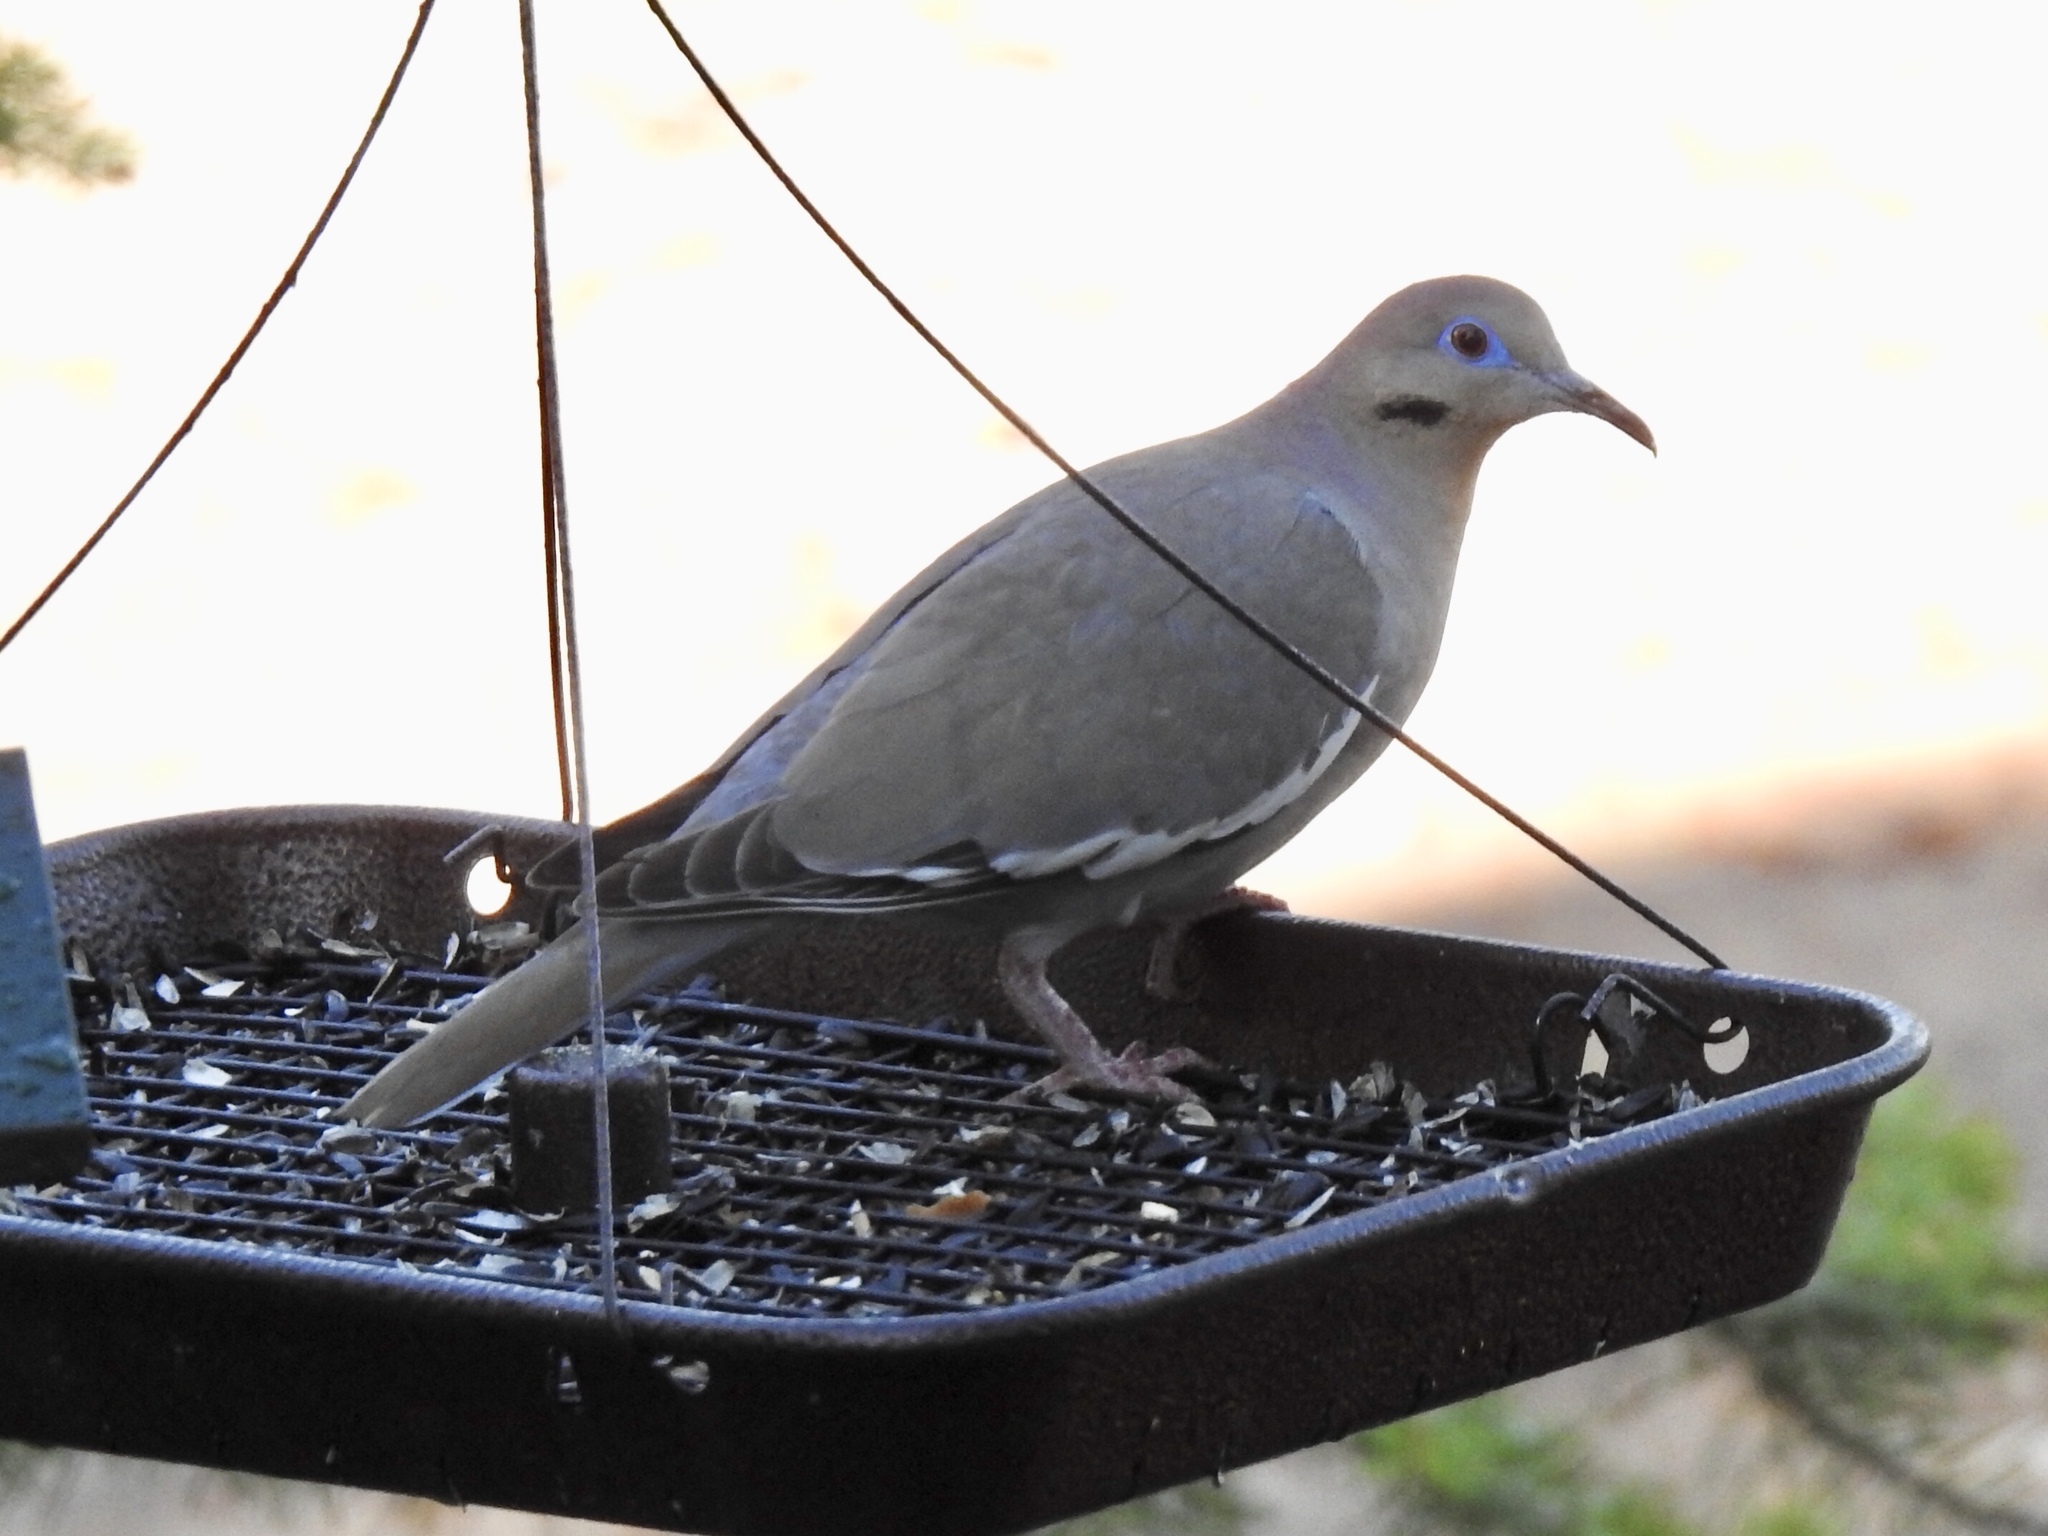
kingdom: Animalia
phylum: Chordata
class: Aves
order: Columbiformes
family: Columbidae
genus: Zenaida
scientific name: Zenaida asiatica
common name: White-winged dove
